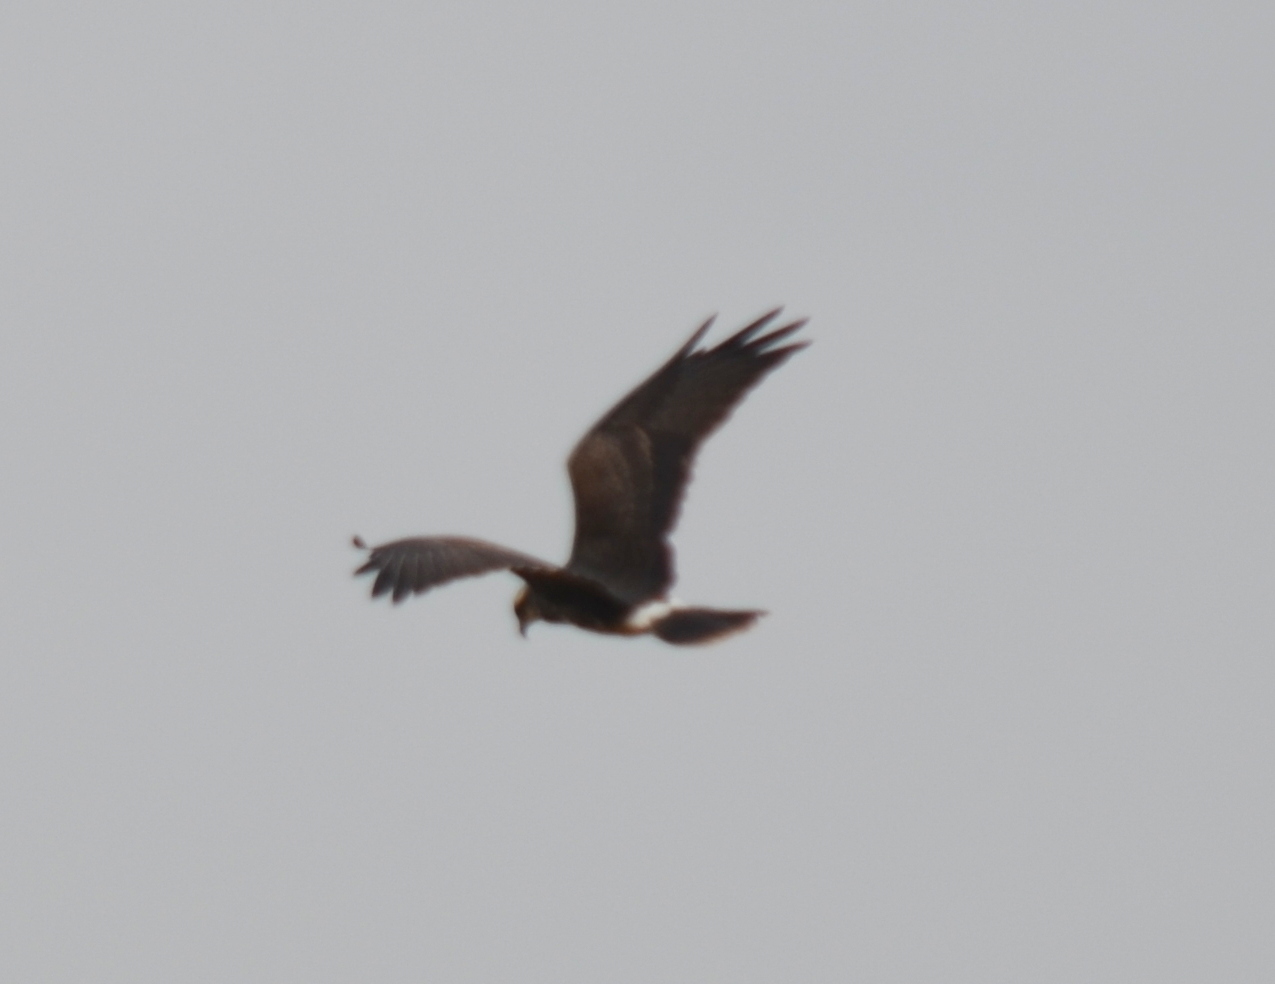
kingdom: Animalia
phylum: Chordata
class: Aves
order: Accipitriformes
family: Accipitridae
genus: Rostrhamus
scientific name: Rostrhamus sociabilis
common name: Snail kite
